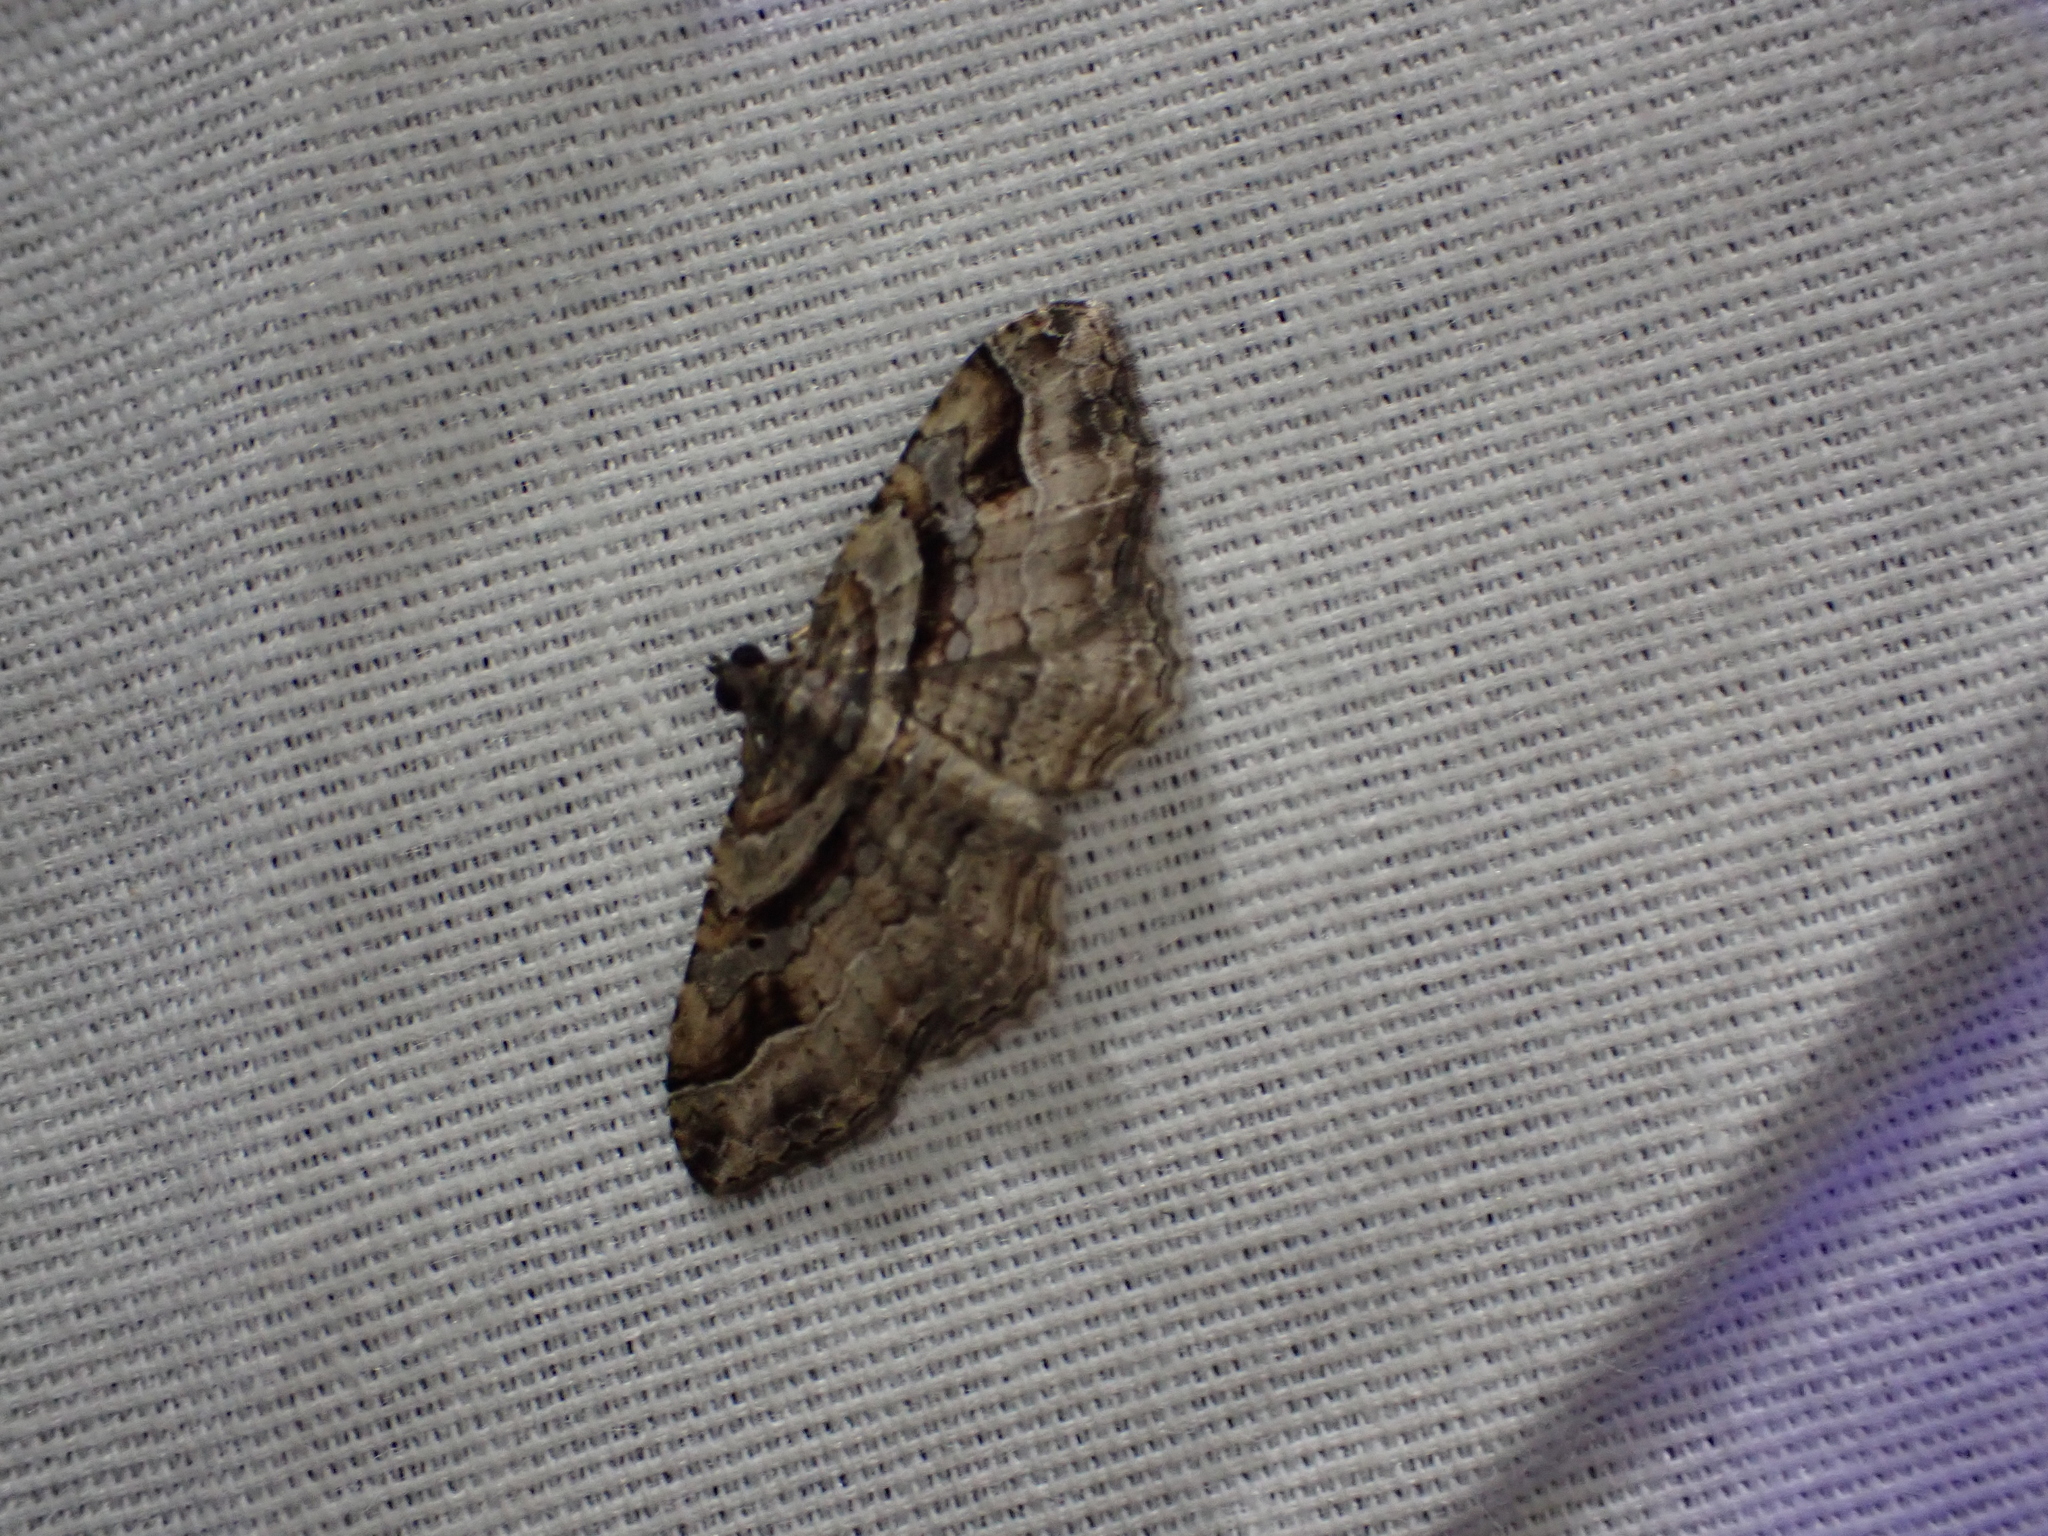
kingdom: Animalia
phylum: Arthropoda
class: Insecta
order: Lepidoptera
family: Geometridae
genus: Costaconvexa
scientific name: Costaconvexa centrostrigaria
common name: Bent-line carpet
